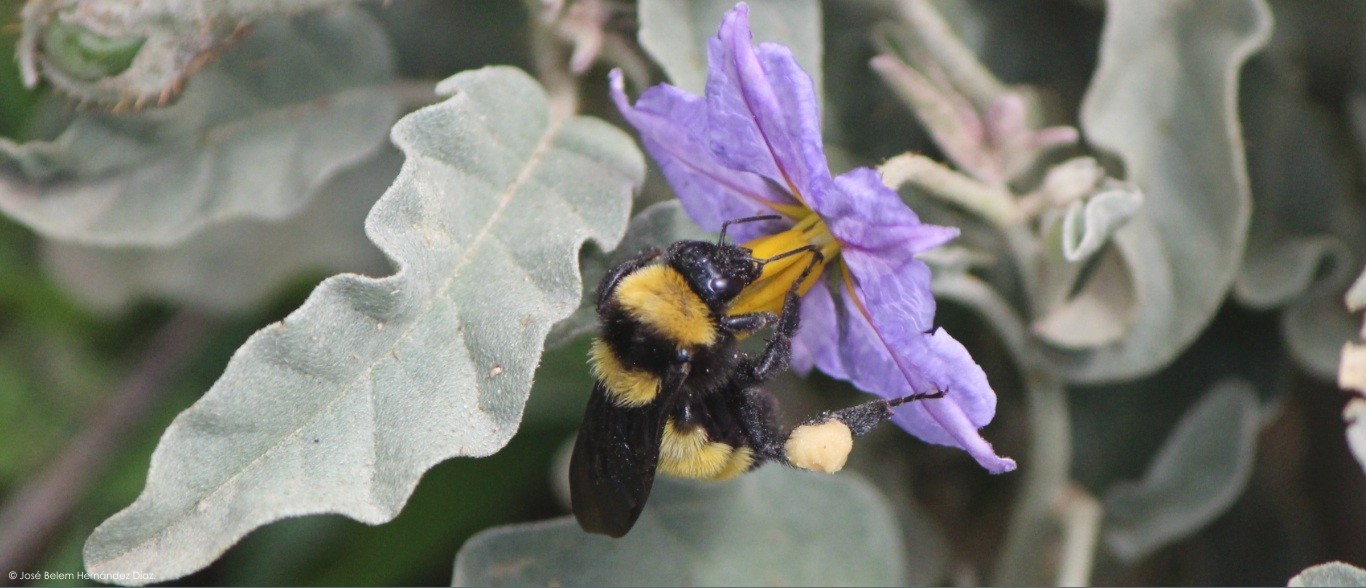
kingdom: Animalia
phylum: Arthropoda
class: Insecta
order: Hymenoptera
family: Apidae
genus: Bombus
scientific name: Bombus sonorus
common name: Sonoran bumble bee
